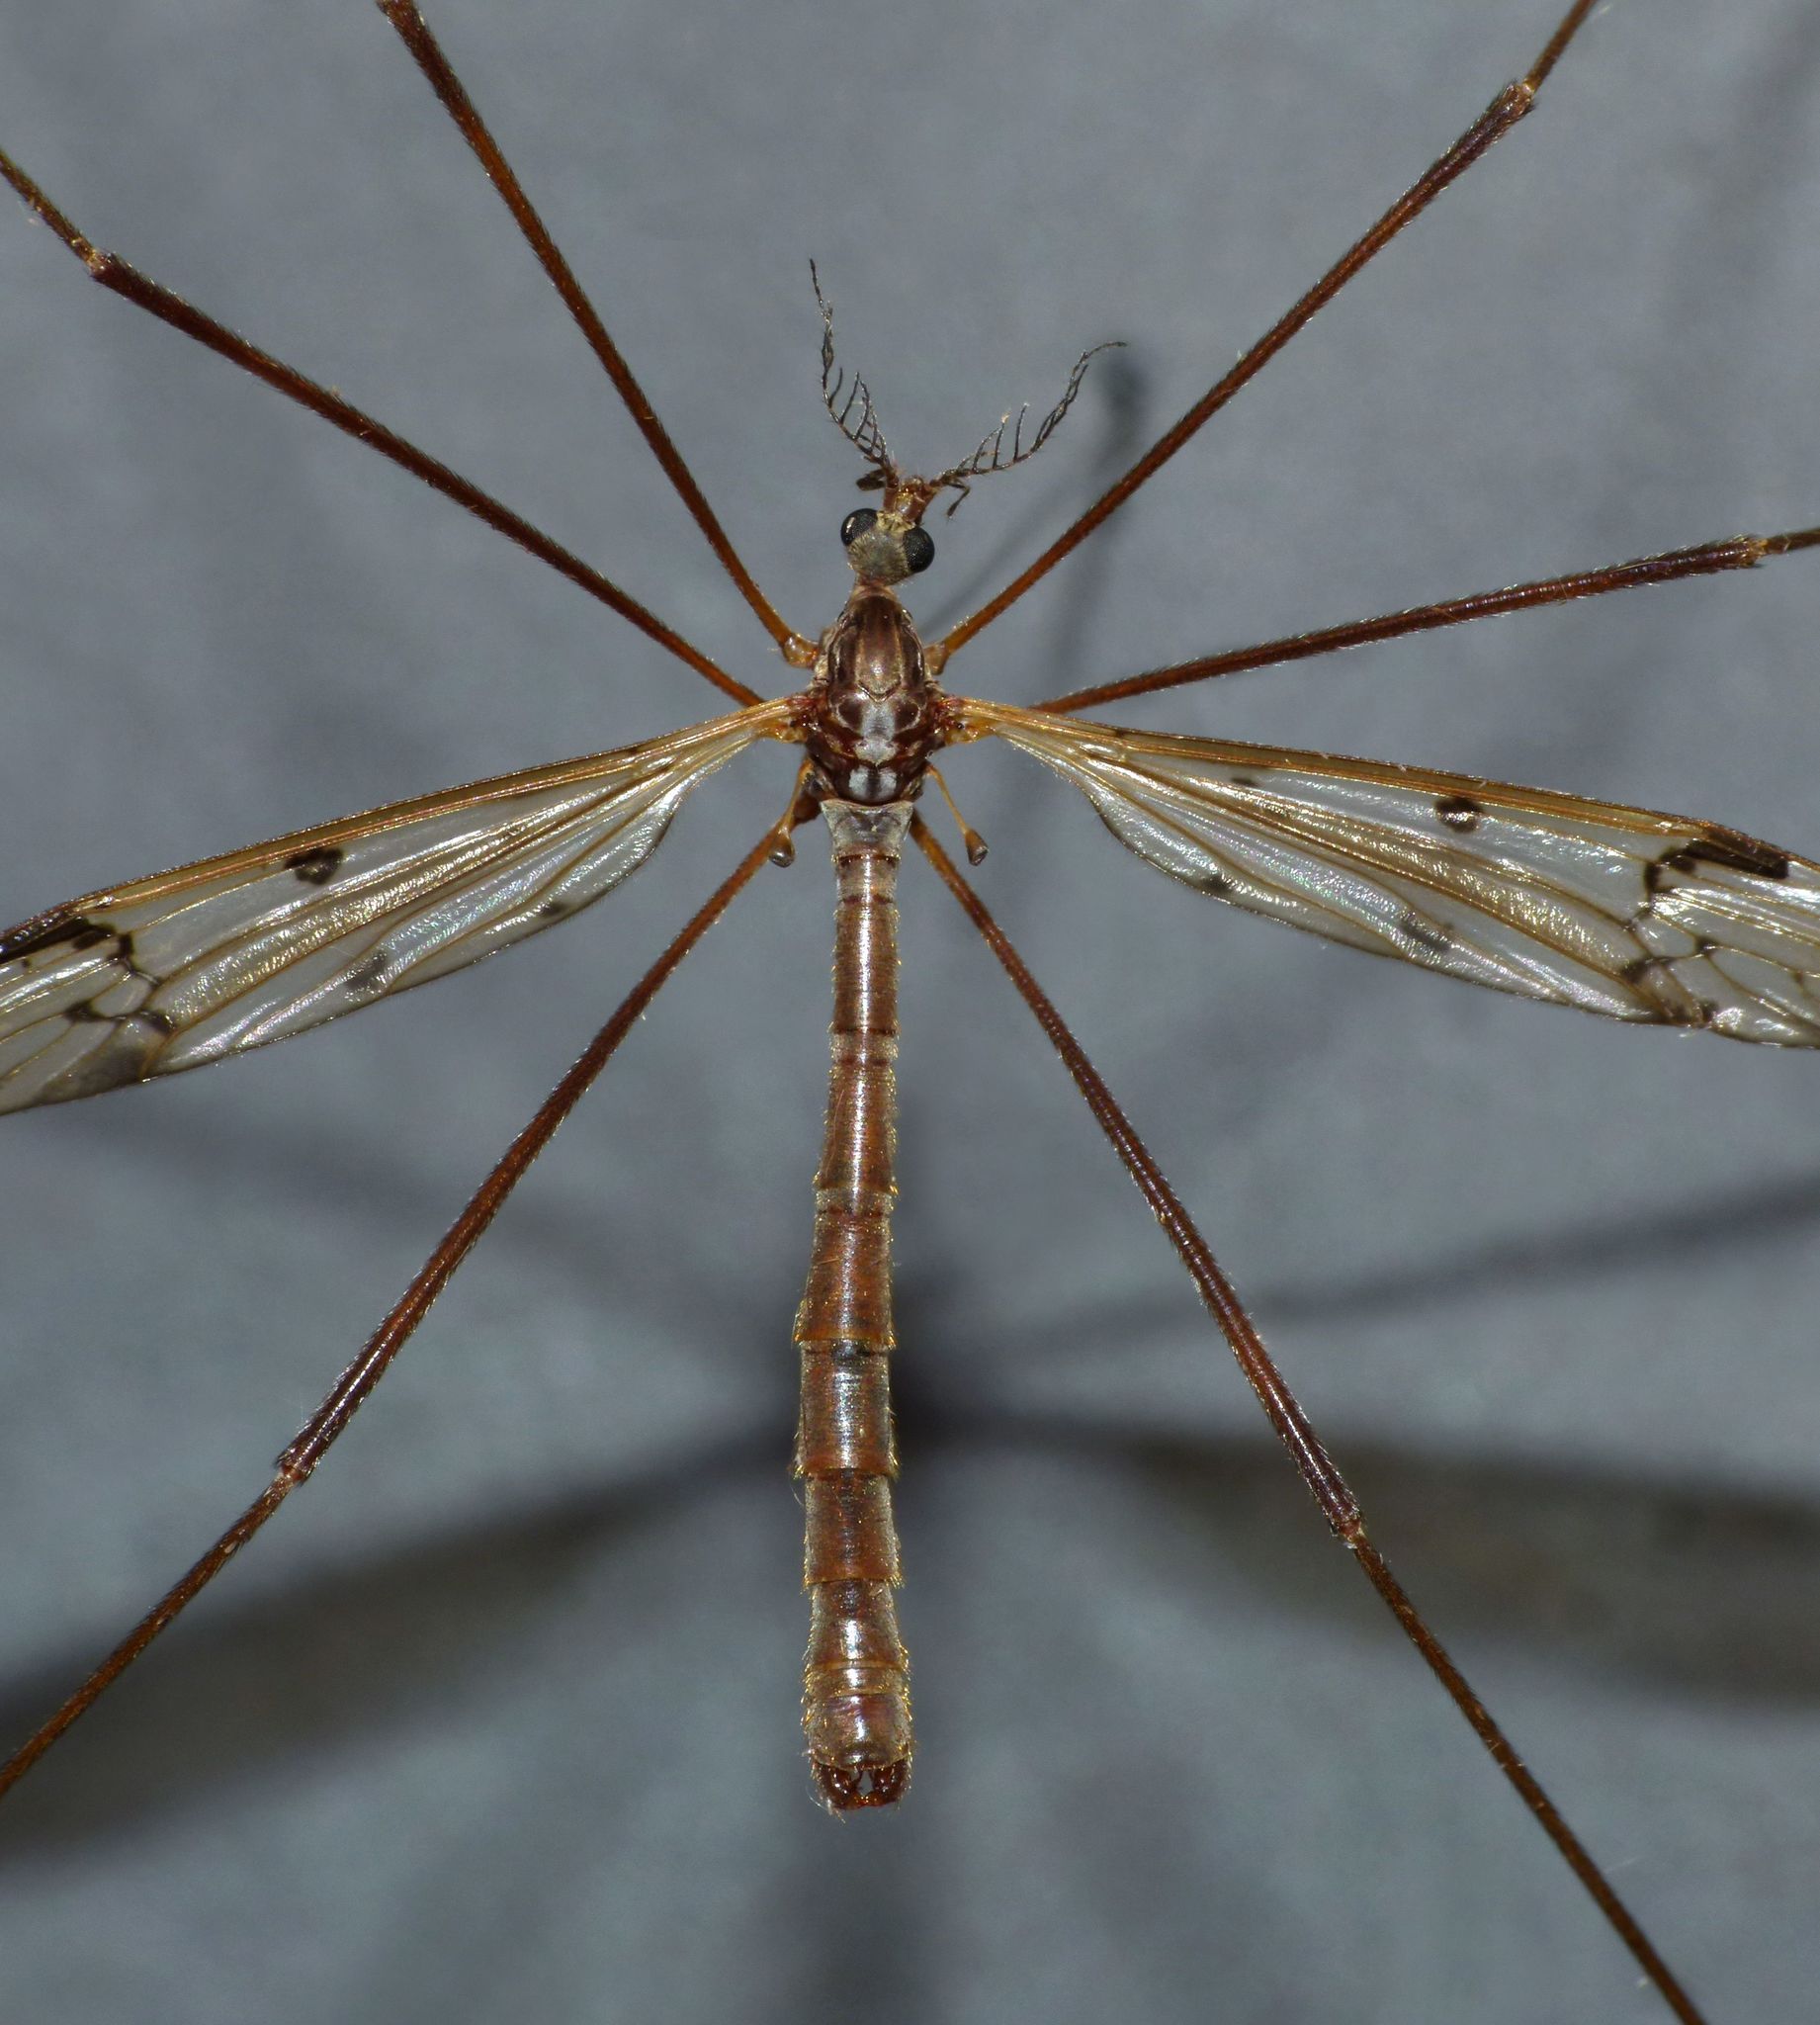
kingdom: Animalia
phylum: Arthropoda
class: Insecta
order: Diptera
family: Limoniidae
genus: Gynoplistia
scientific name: Gynoplistia notata
